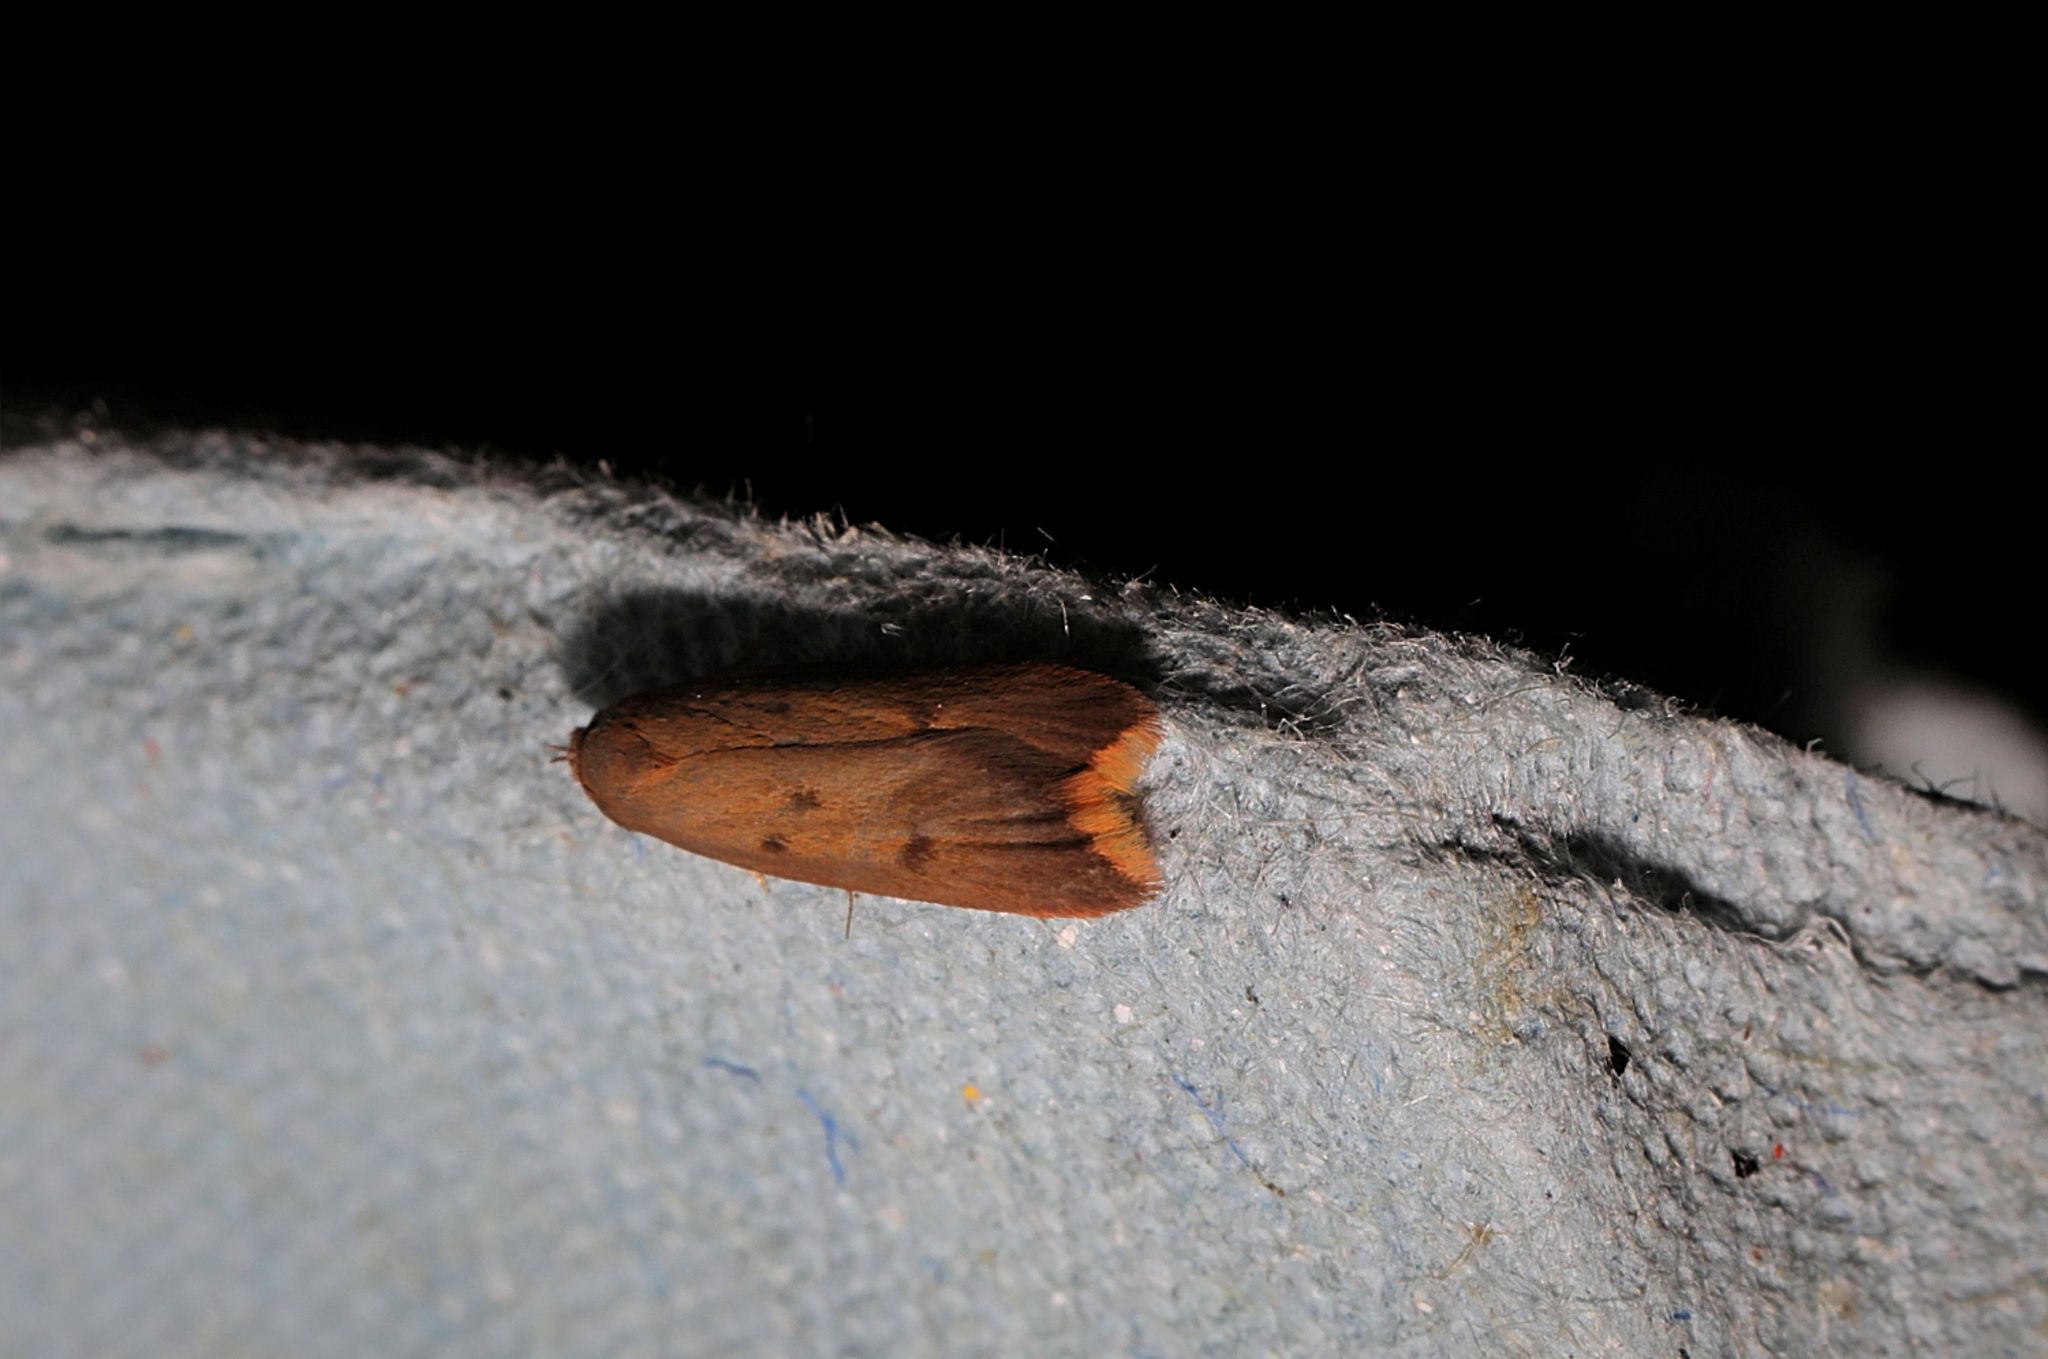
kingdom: Animalia
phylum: Arthropoda
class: Insecta
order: Lepidoptera
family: Oecophoridae
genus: Tachystola
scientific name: Tachystola acroxantha
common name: Ruddy streak
